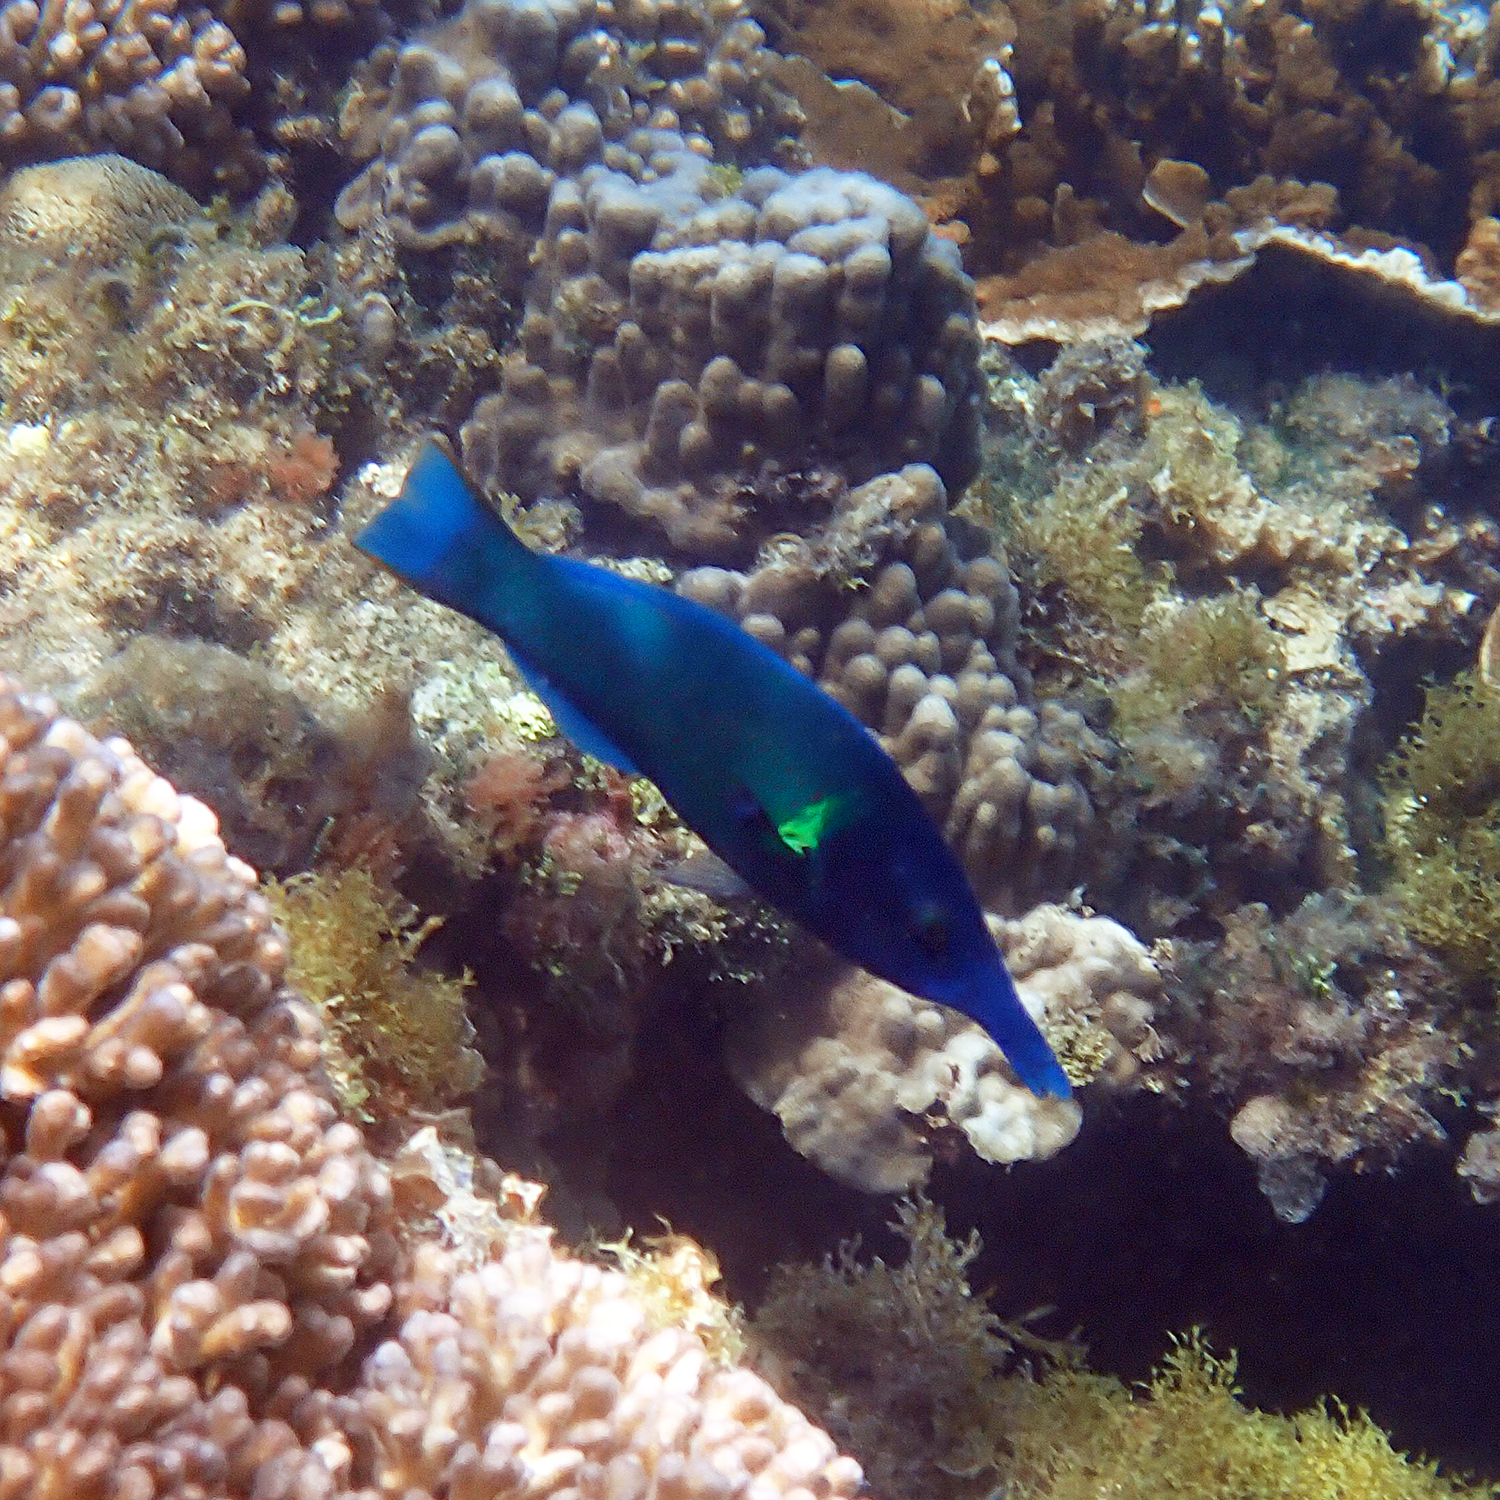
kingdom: Animalia
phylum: Chordata
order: Perciformes
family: Labridae
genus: Gomphosus
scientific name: Gomphosus varius
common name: Bird wrasse
